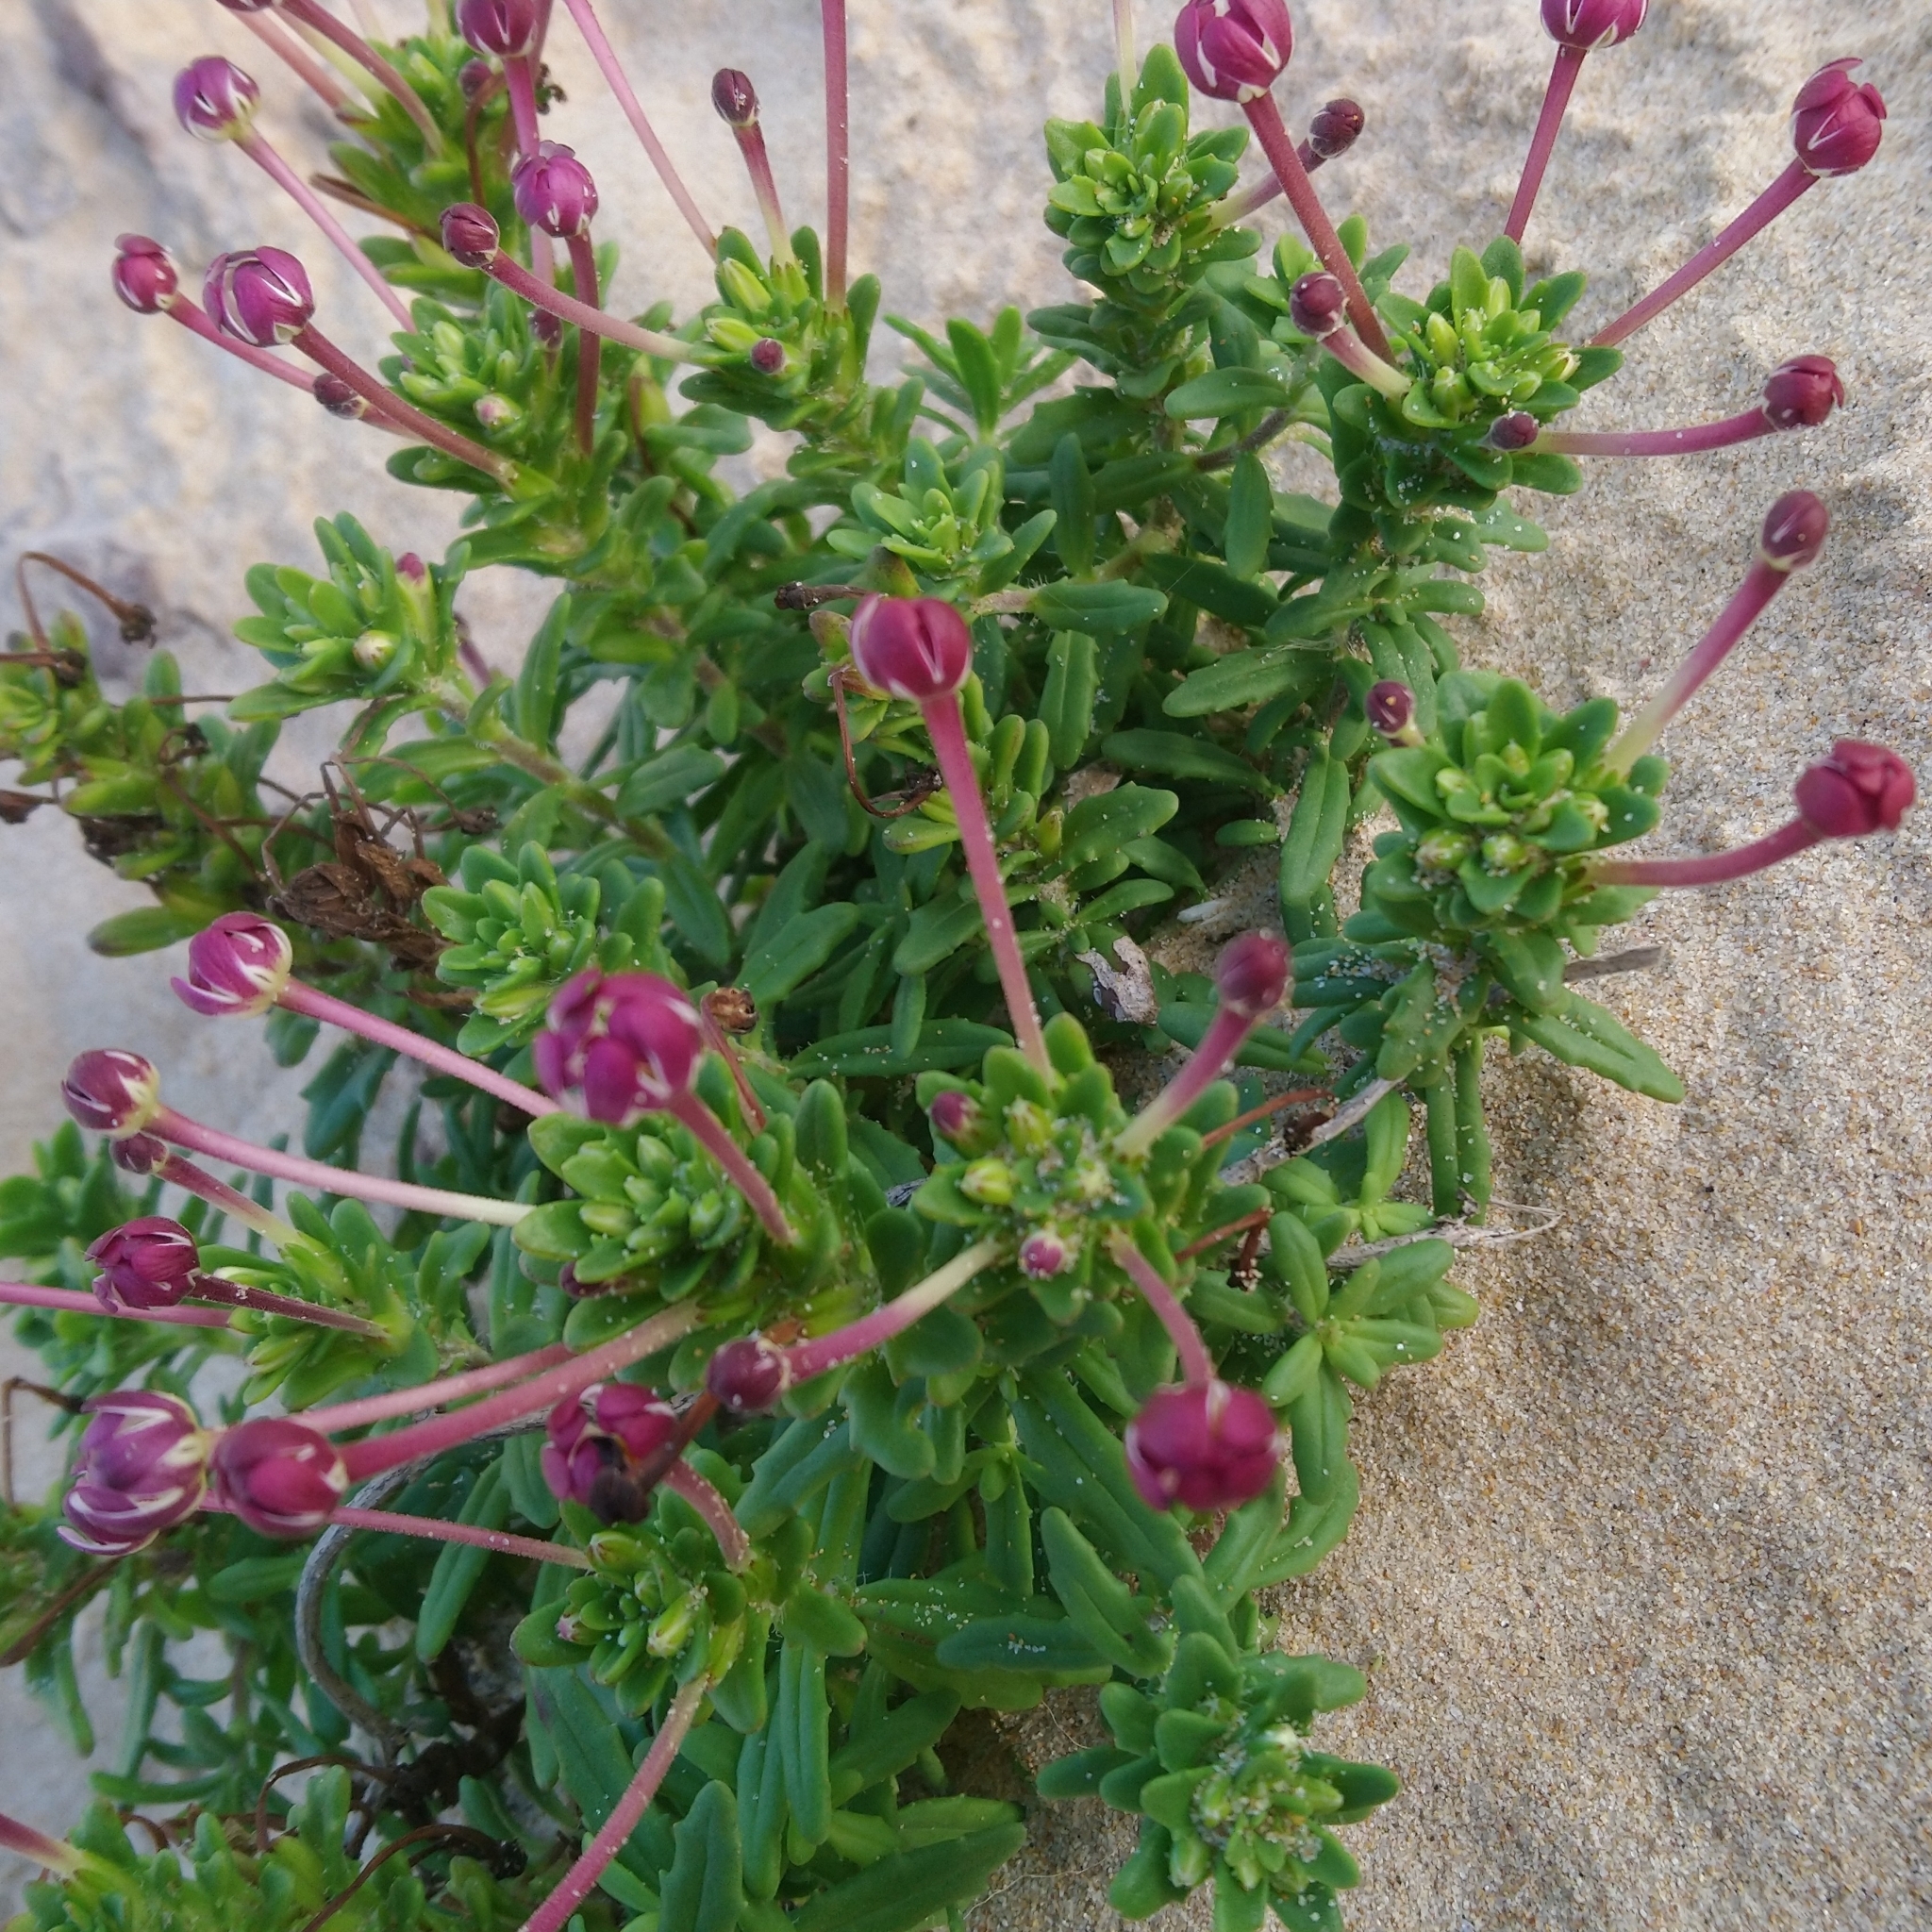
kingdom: Plantae
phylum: Tracheophyta
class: Magnoliopsida
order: Lamiales
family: Scrophulariaceae
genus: Zaluzianskya
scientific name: Zaluzianskya maritima
